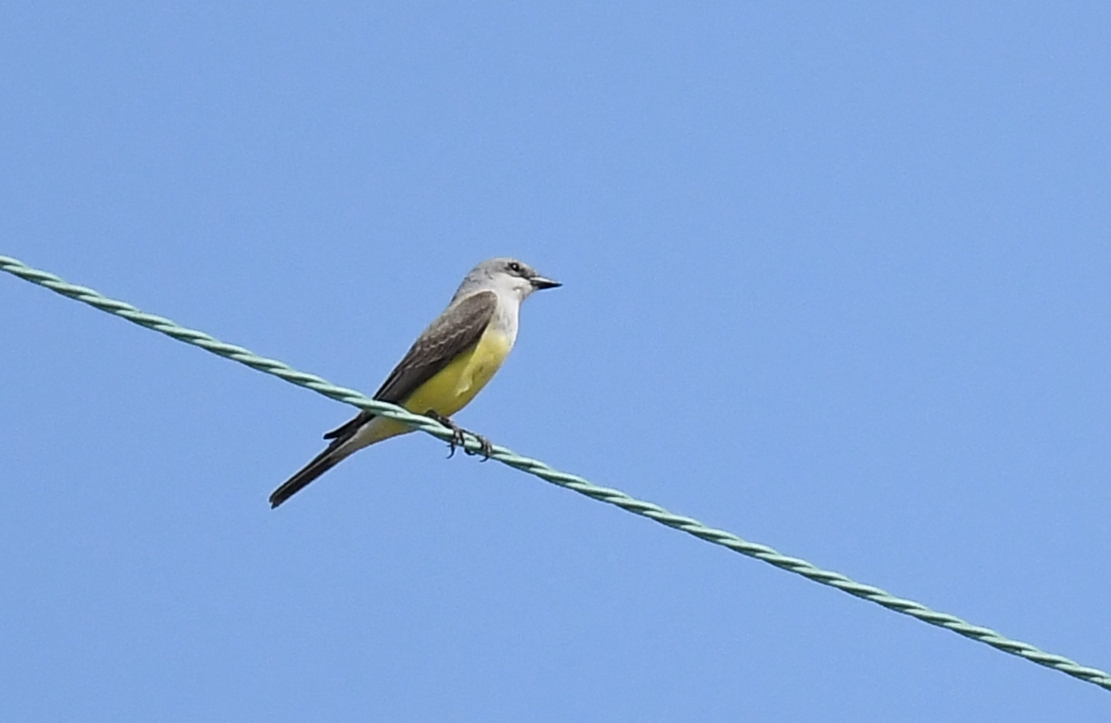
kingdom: Animalia
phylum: Chordata
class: Aves
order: Passeriformes
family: Tyrannidae
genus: Tyrannus
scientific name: Tyrannus verticalis
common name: Western kingbird
